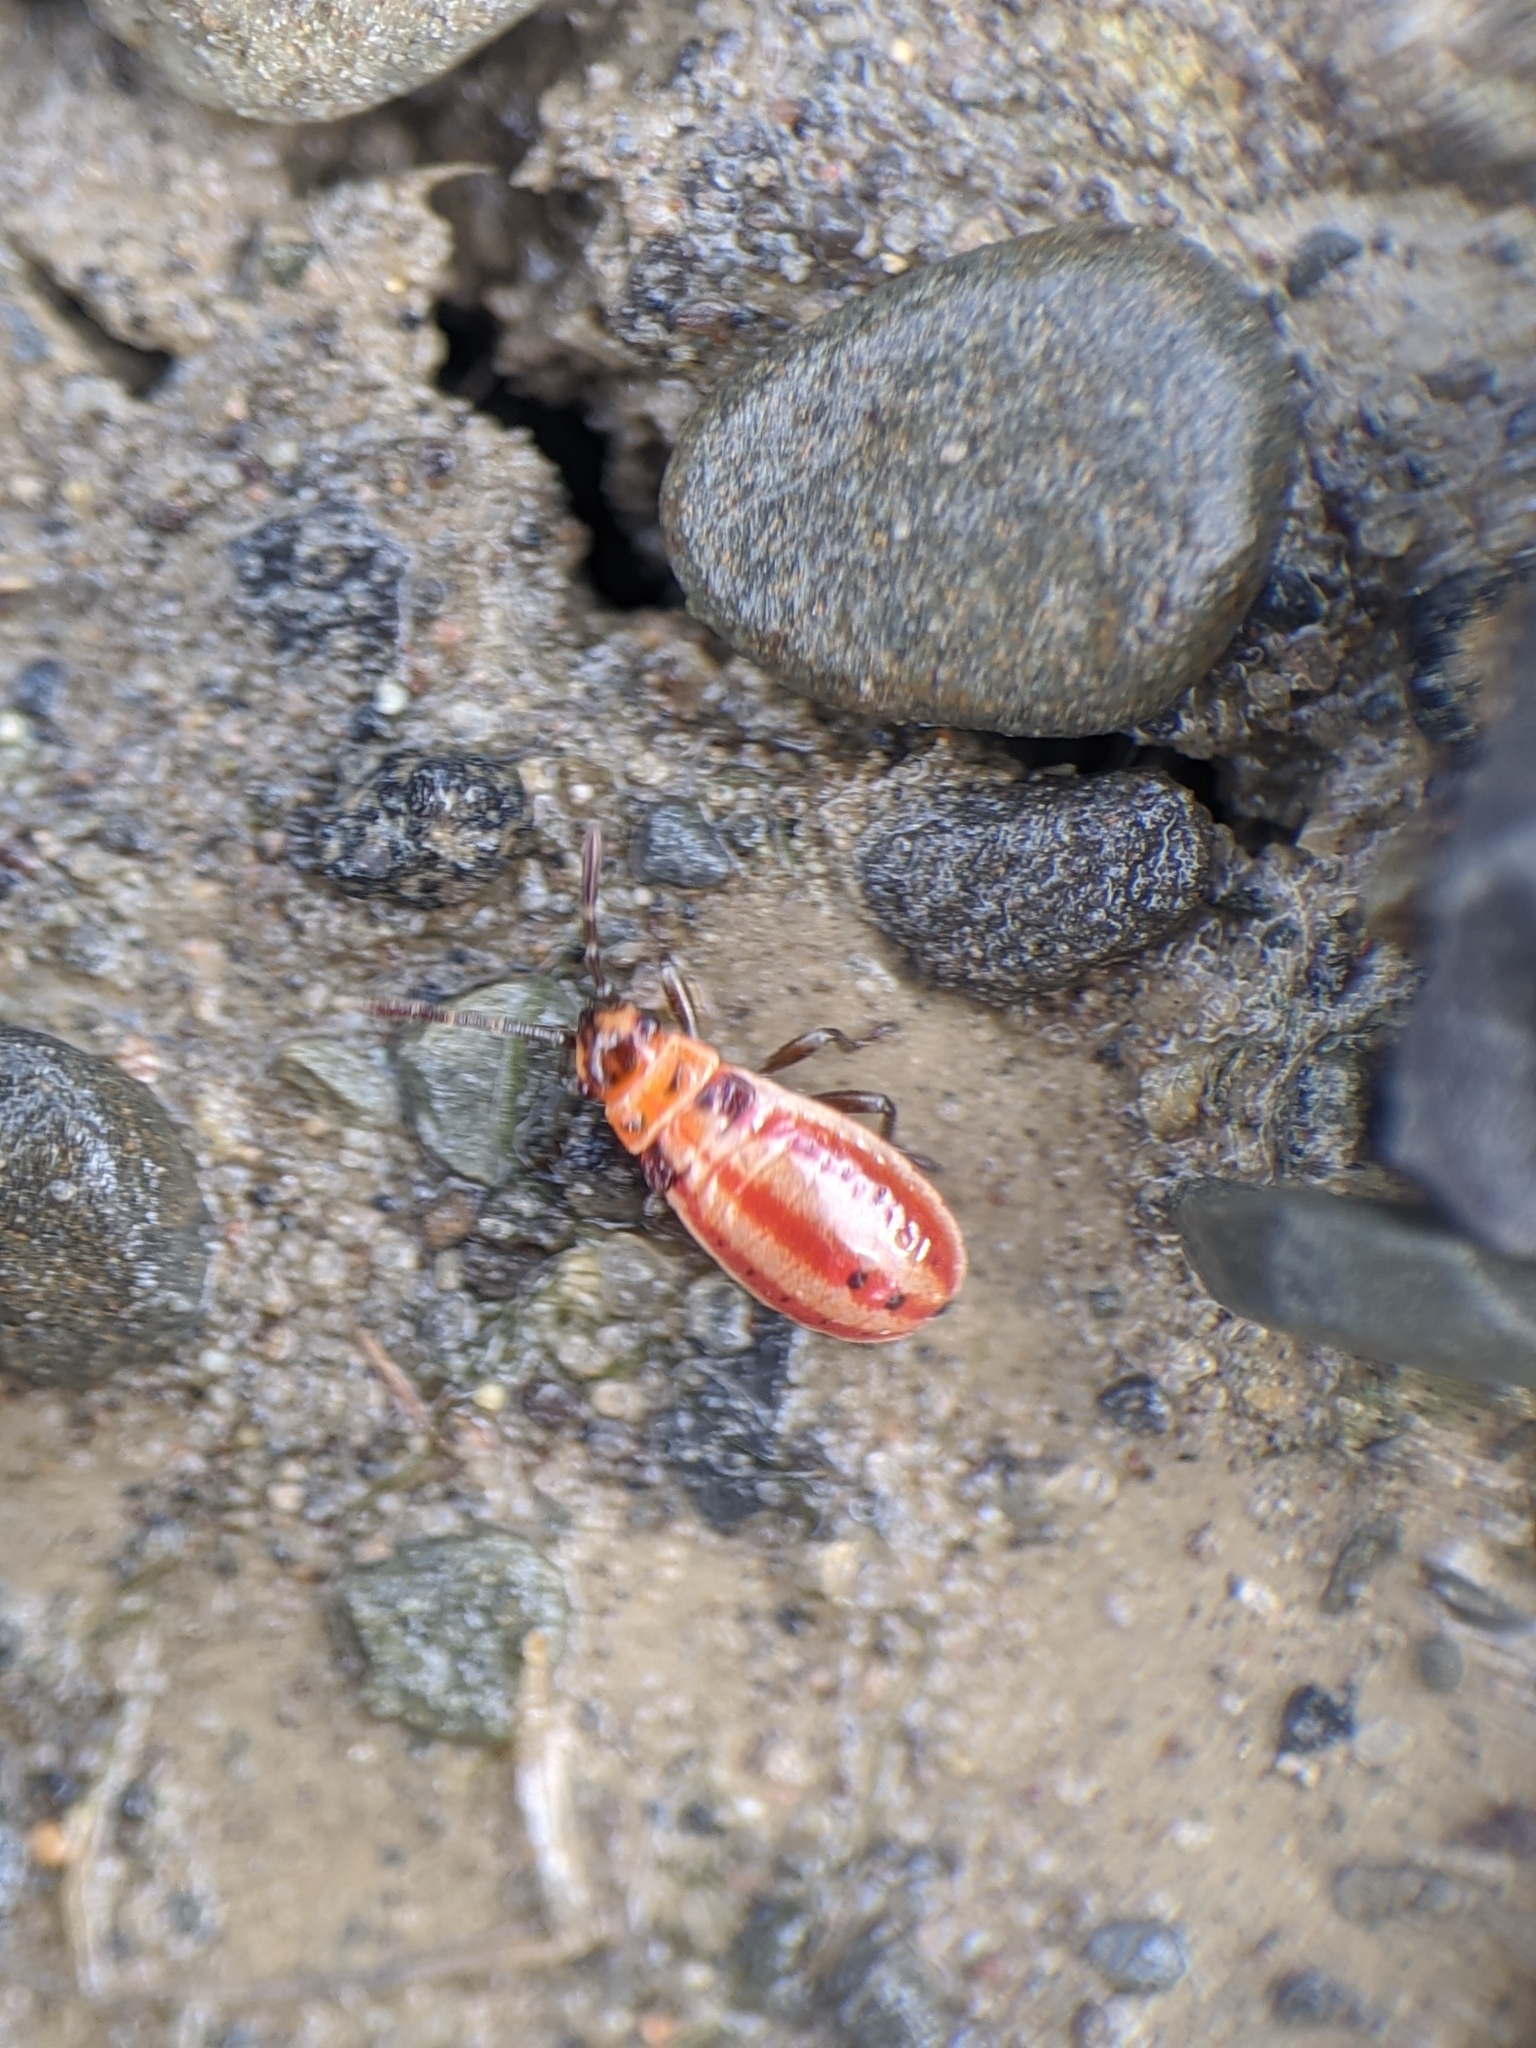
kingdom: Animalia
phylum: Arthropoda
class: Insecta
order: Hemiptera
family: Lygaeidae
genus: Lygaeus
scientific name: Lygaeus kalmii
